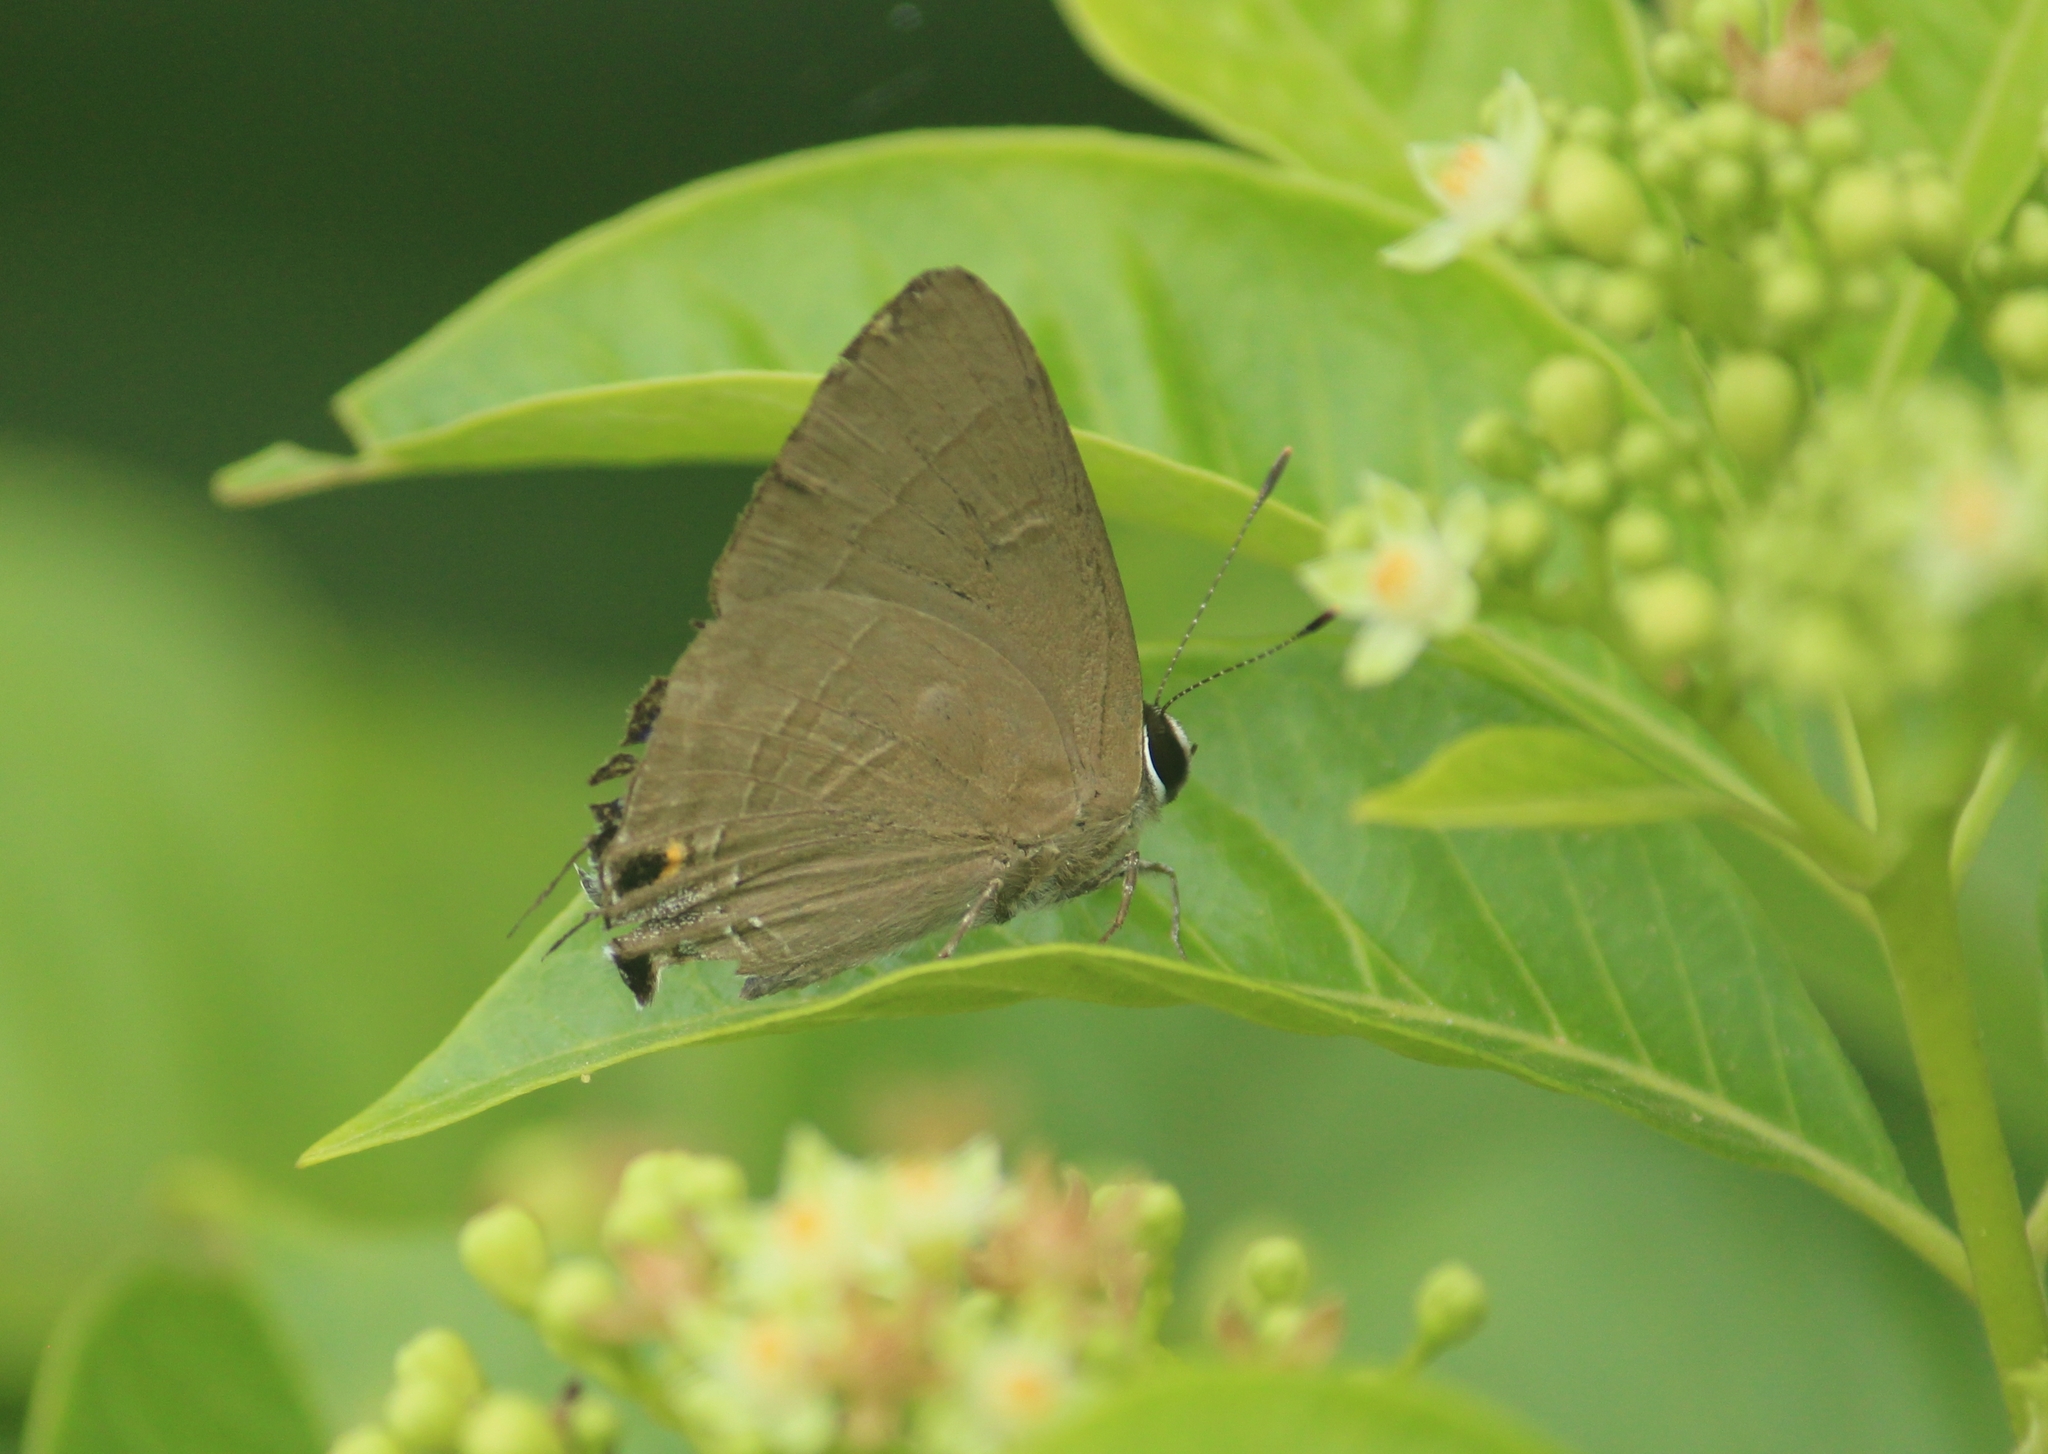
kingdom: Animalia
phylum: Arthropoda
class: Insecta
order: Lepidoptera
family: Lycaenidae
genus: Rapala
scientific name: Rapala manea
